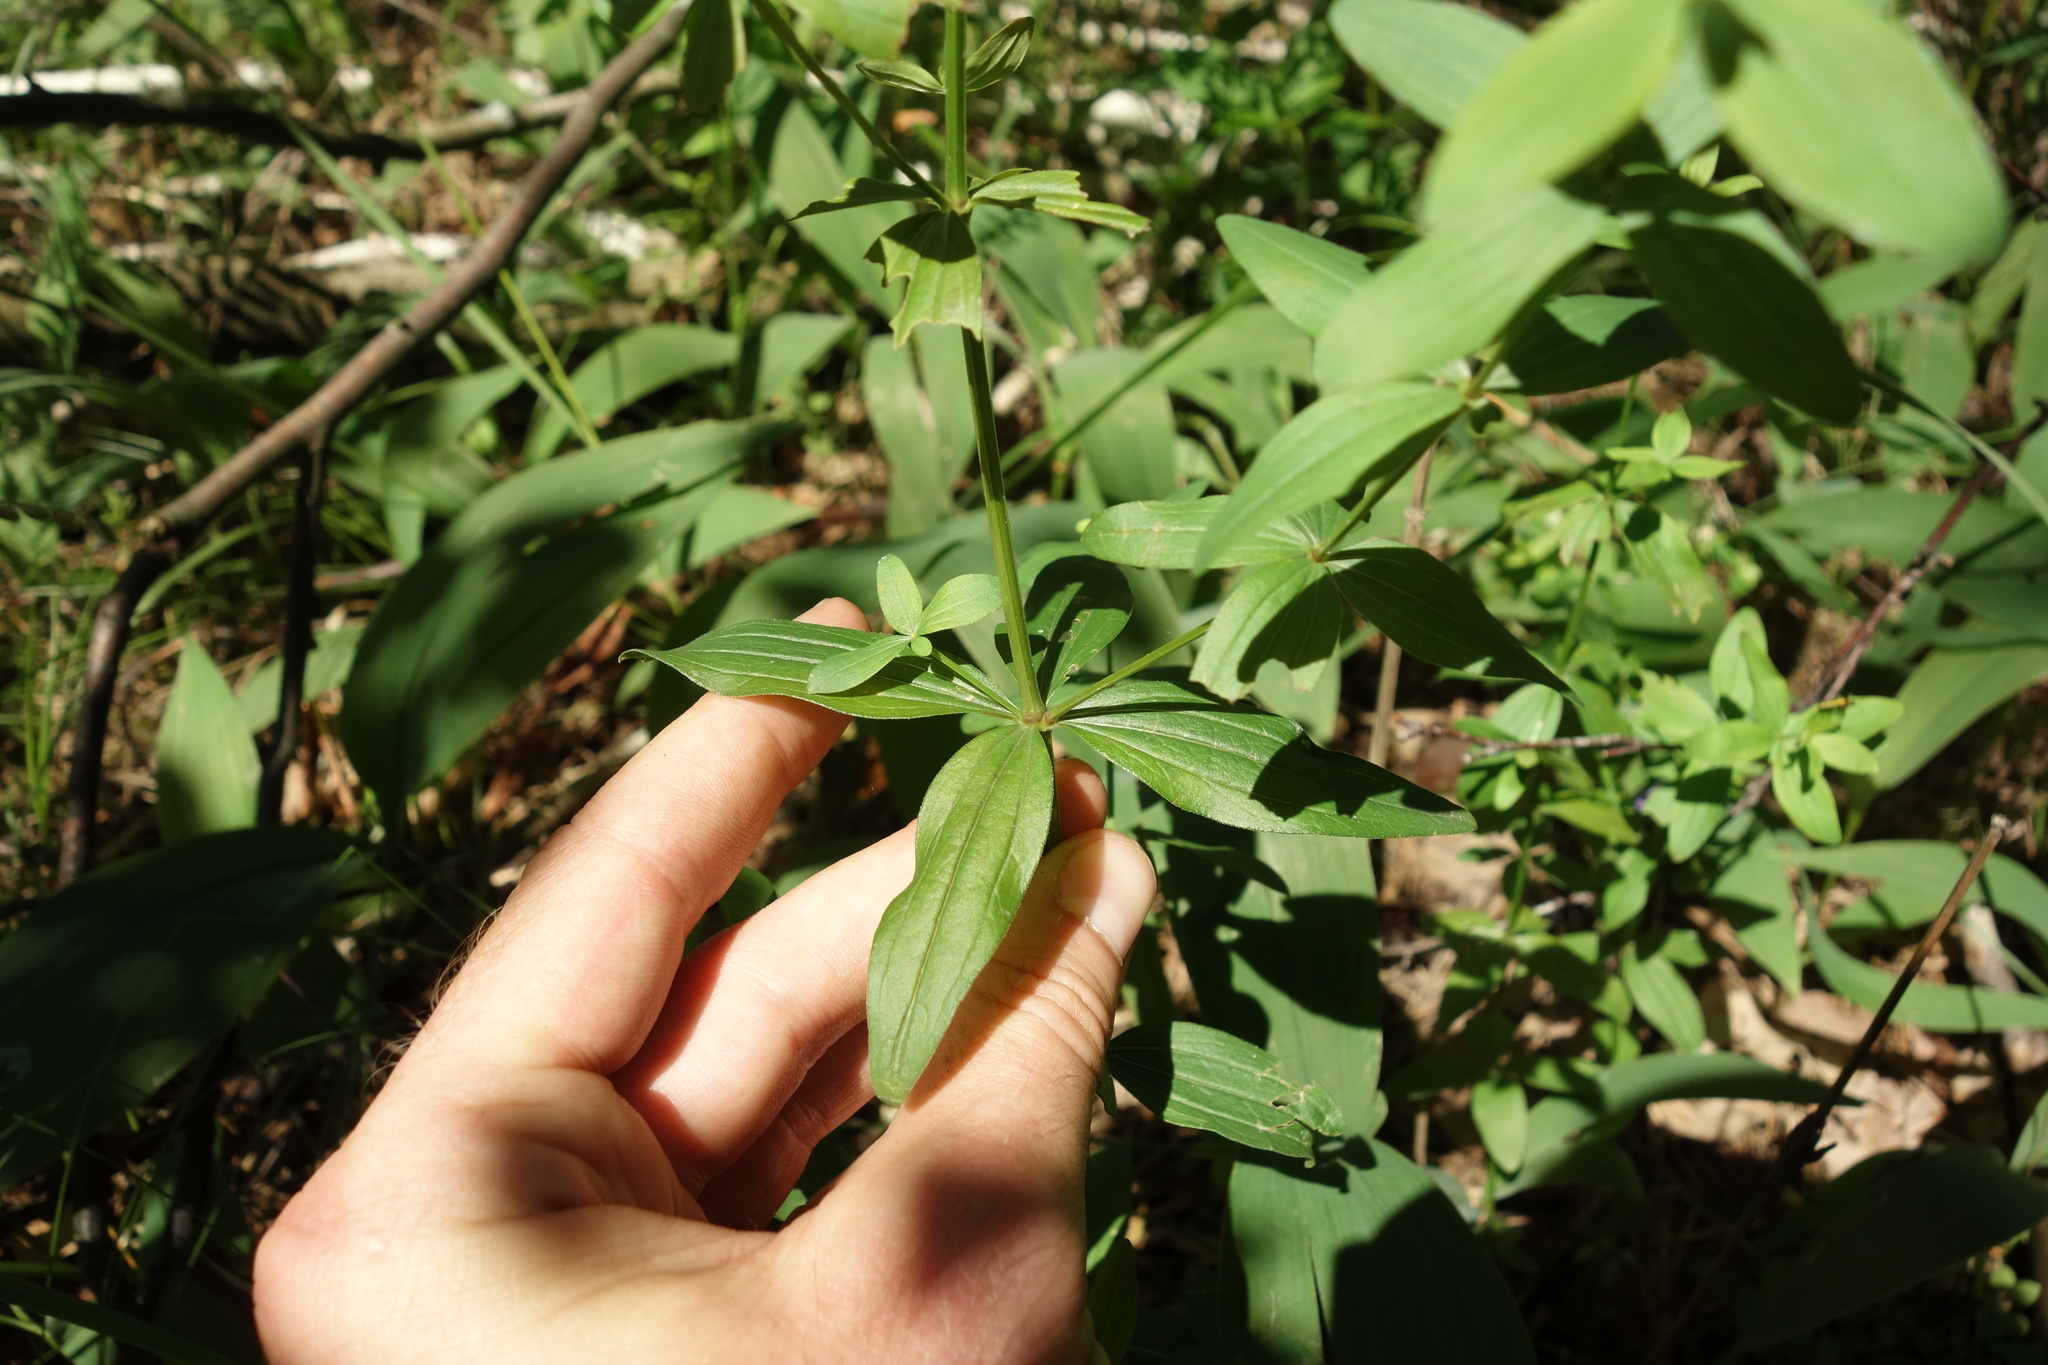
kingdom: Plantae
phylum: Tracheophyta
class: Magnoliopsida
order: Gentianales
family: Rubiaceae
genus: Galium
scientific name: Galium rubioides
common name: European bedstraw
